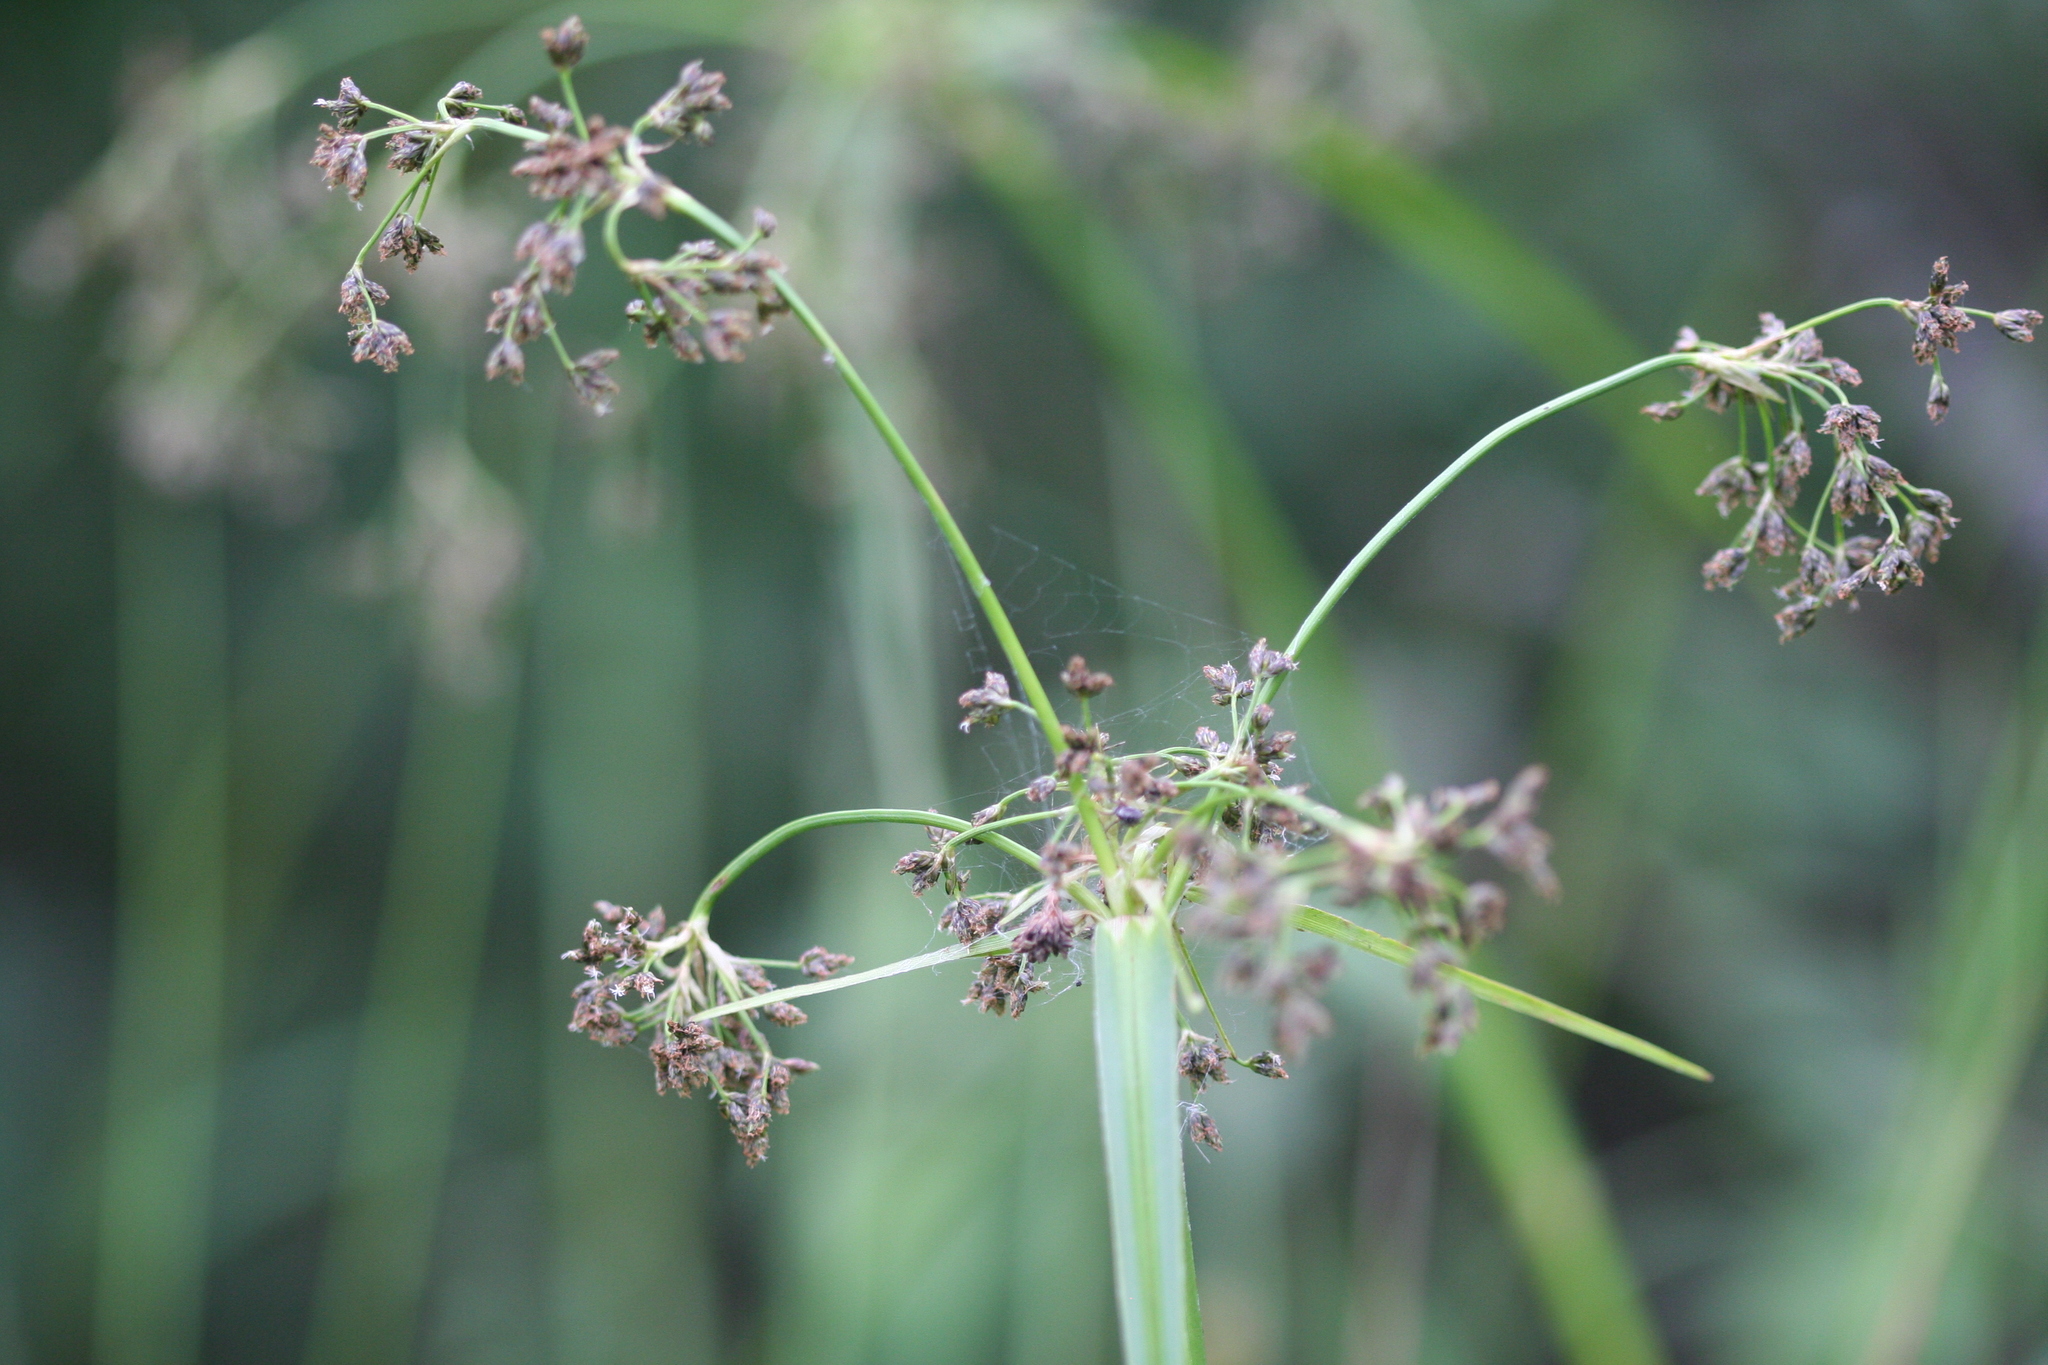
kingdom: Plantae
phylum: Tracheophyta
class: Liliopsida
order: Poales
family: Cyperaceae
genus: Scirpus
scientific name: Scirpus sylvaticus
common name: Wood club-rush
